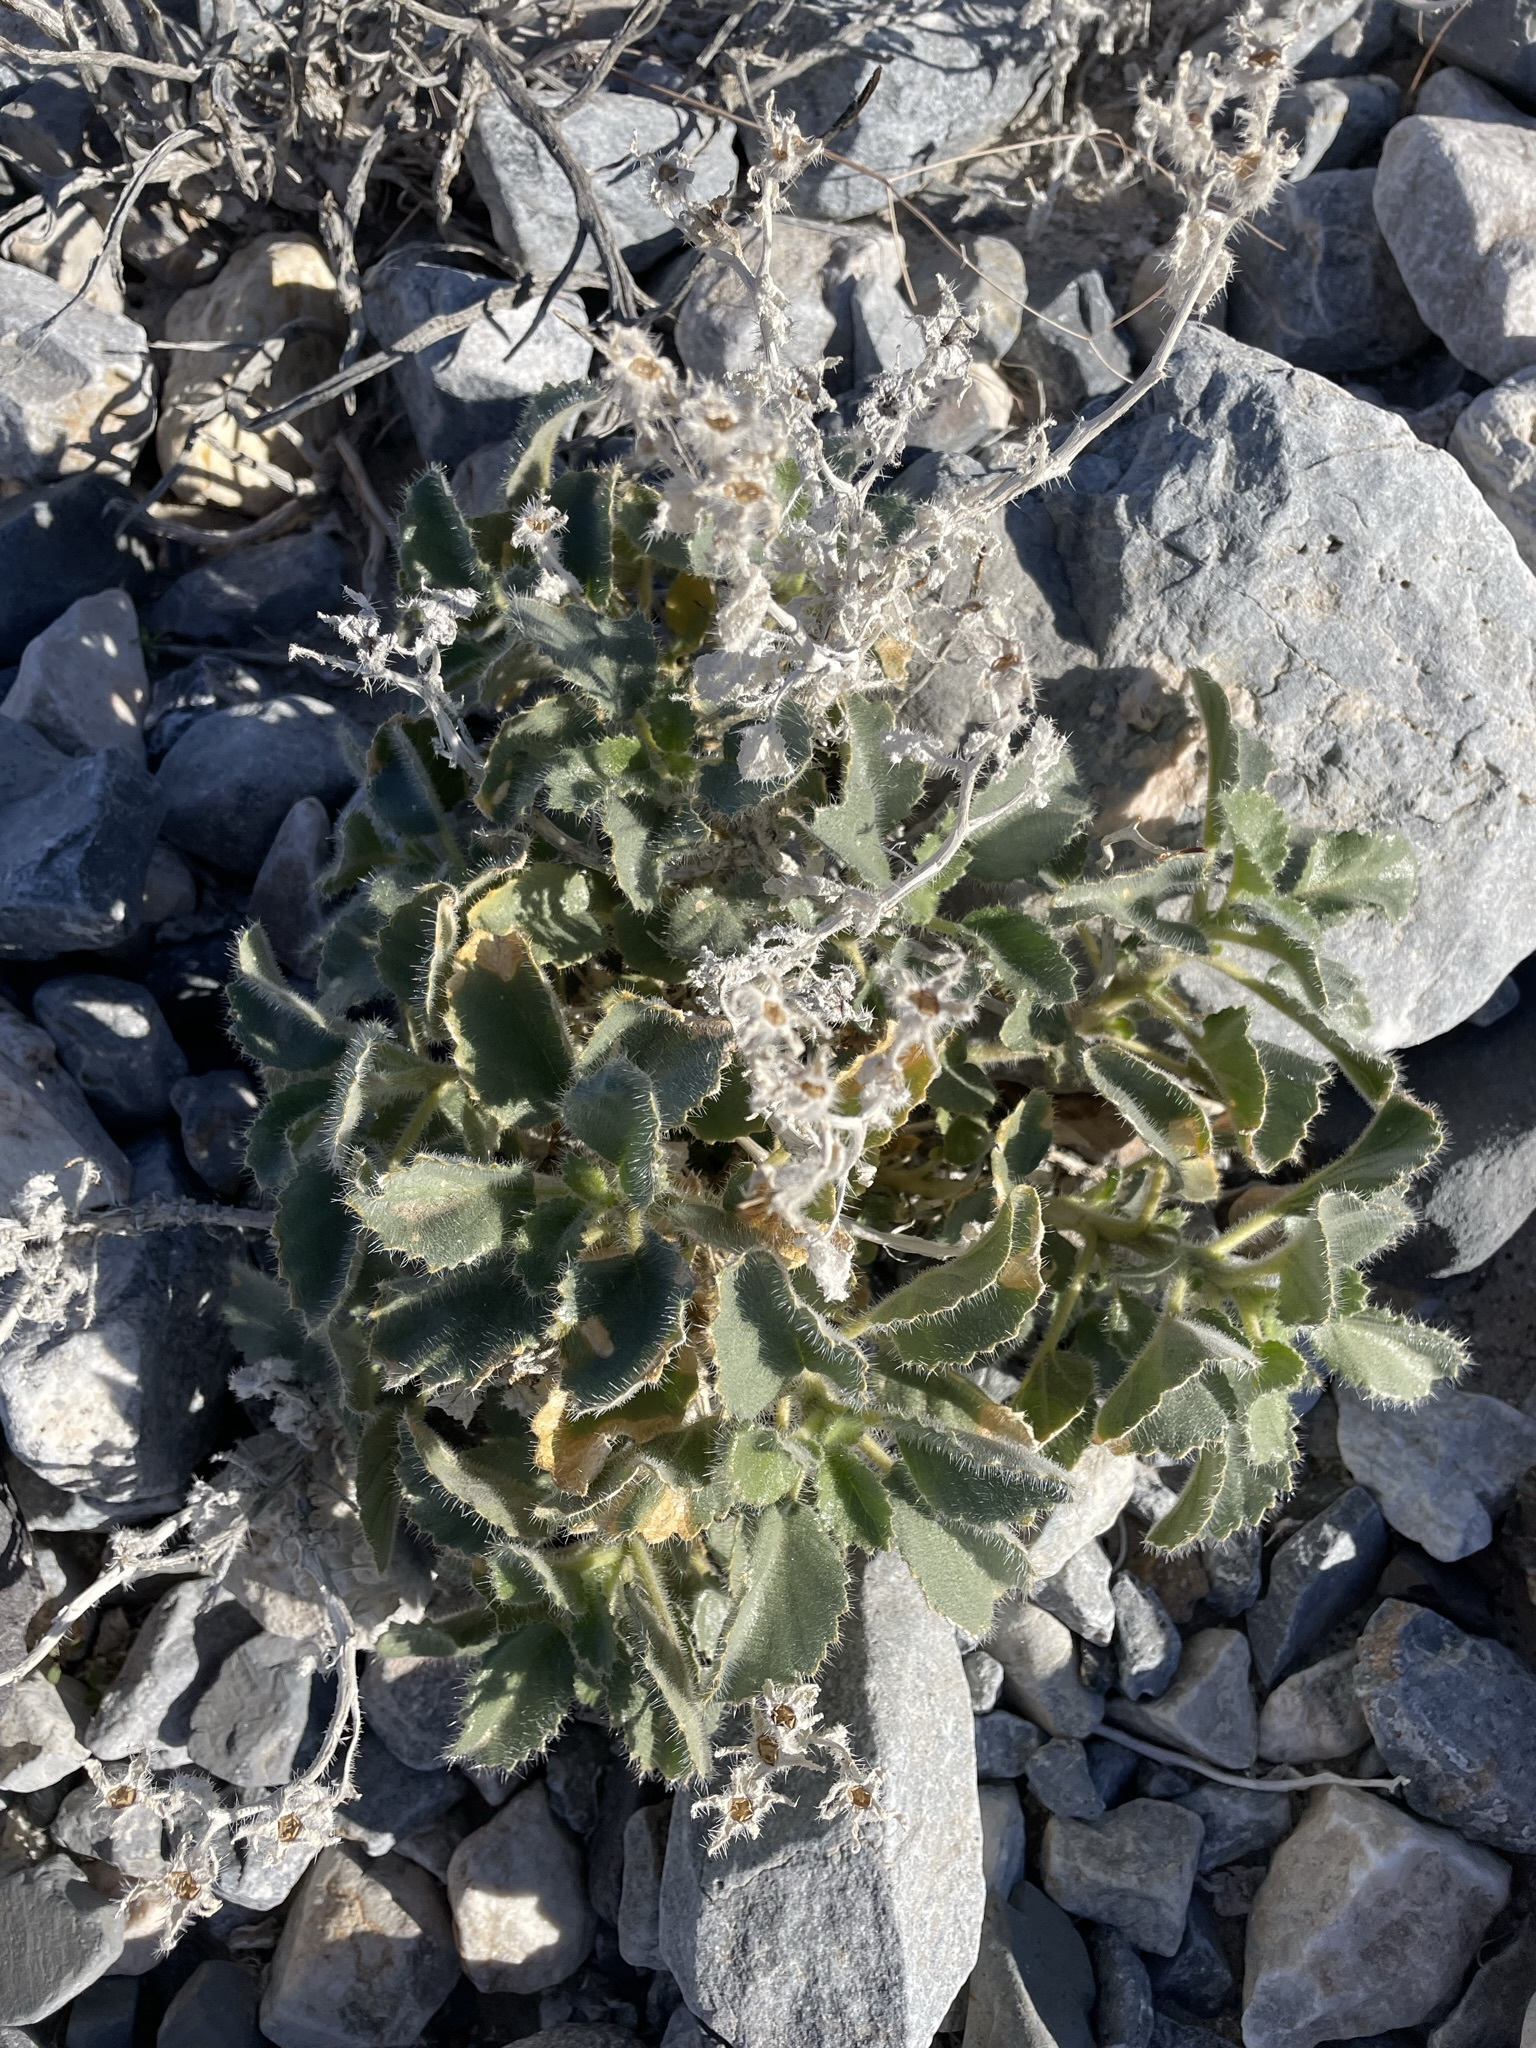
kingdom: Plantae
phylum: Tracheophyta
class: Magnoliopsida
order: Cornales
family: Loasaceae
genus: Eucnide
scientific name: Eucnide urens
